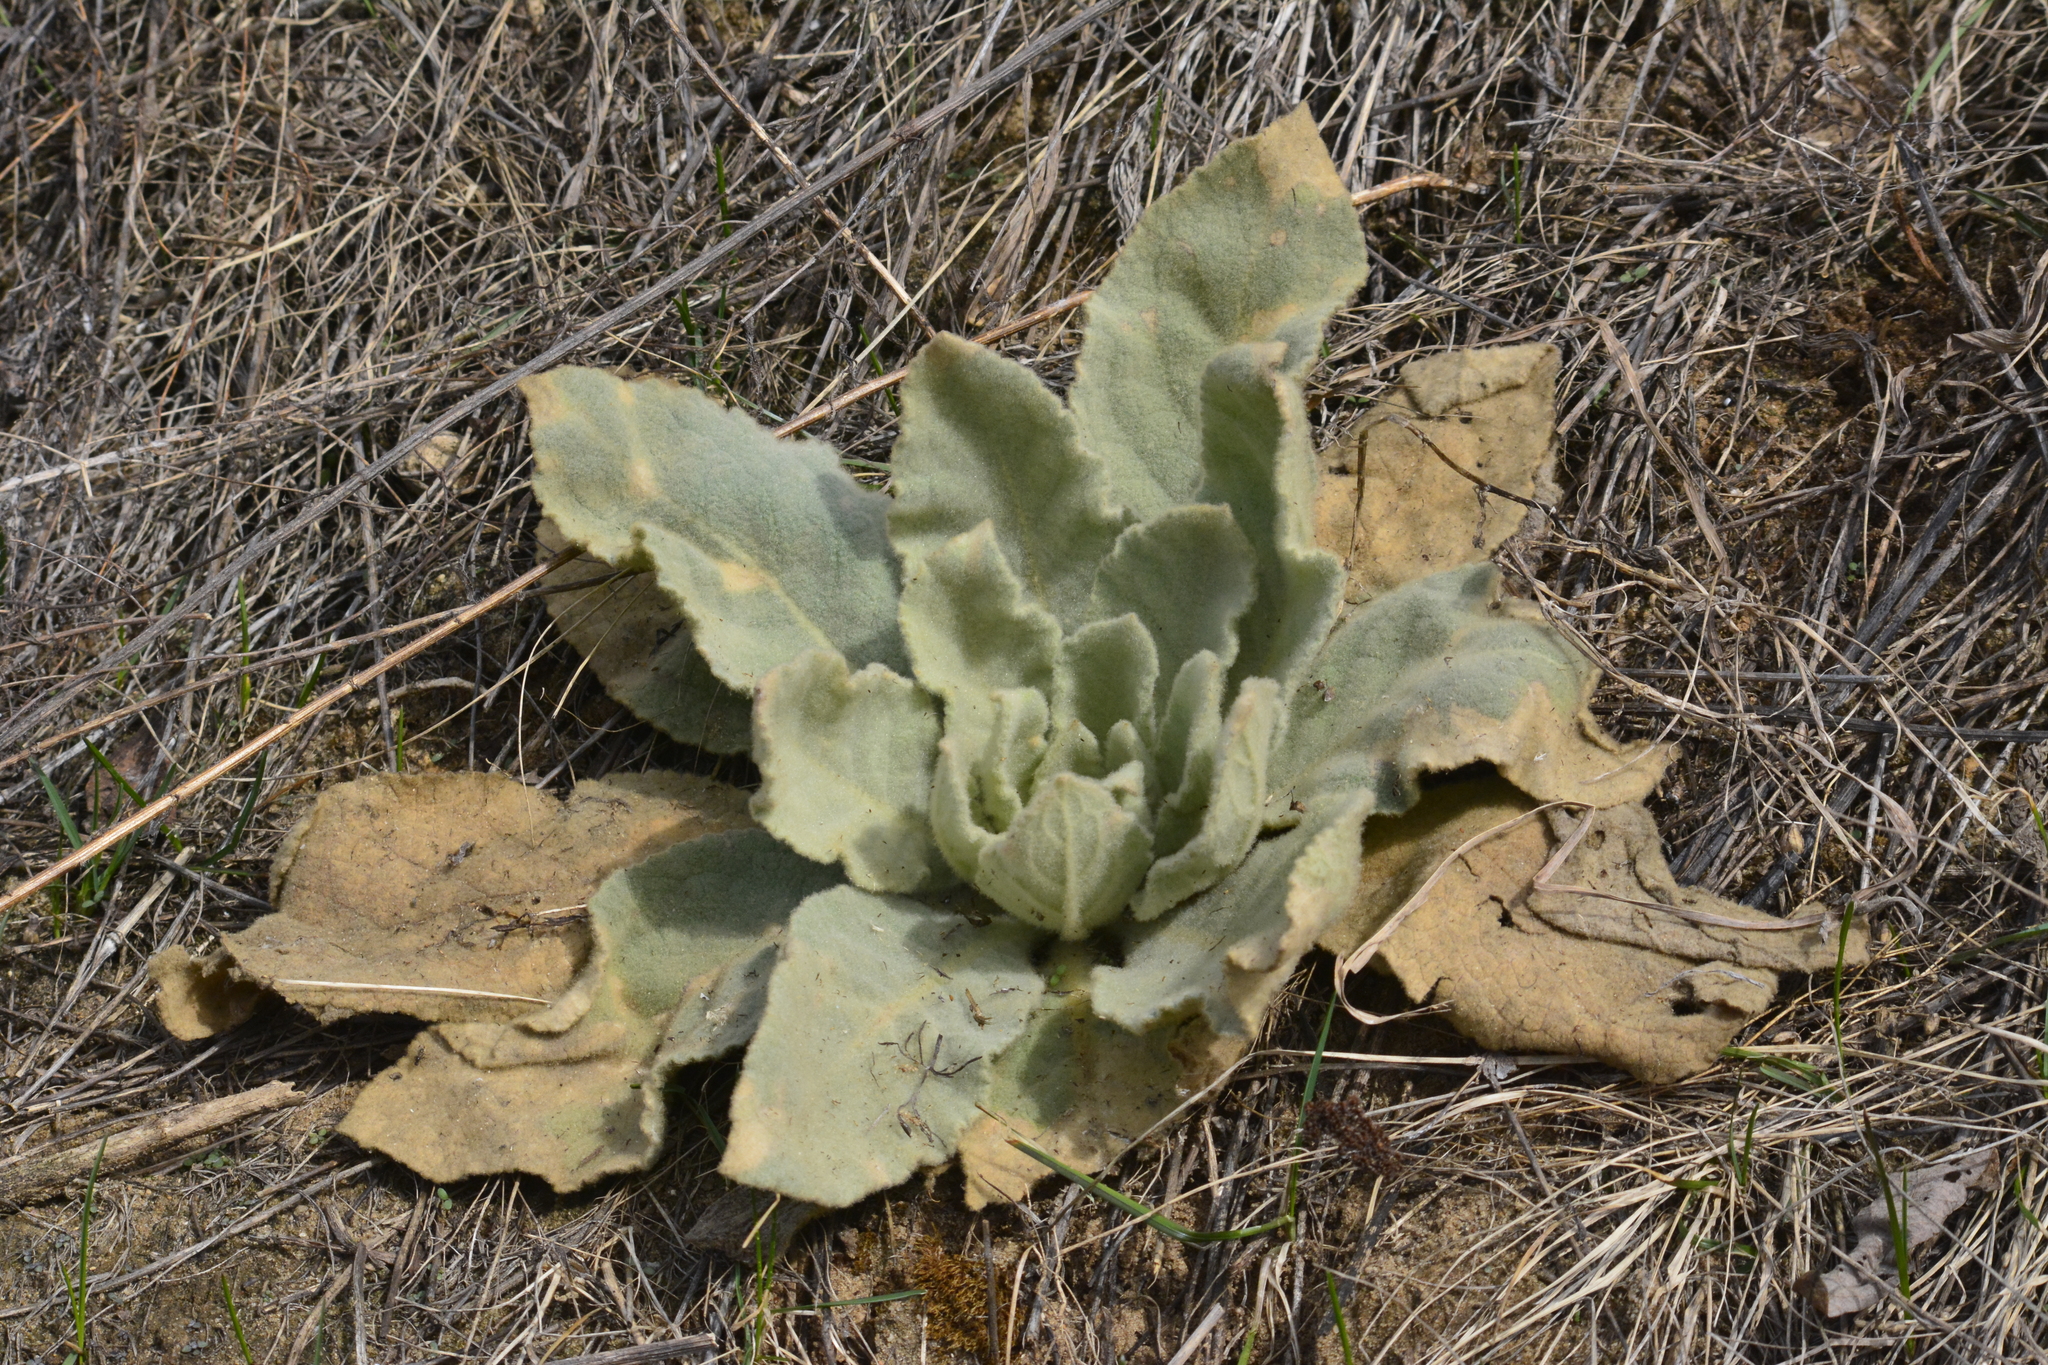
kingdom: Plantae
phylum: Tracheophyta
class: Magnoliopsida
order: Lamiales
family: Scrophulariaceae
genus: Verbascum
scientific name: Verbascum thapsus
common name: Common mullein
